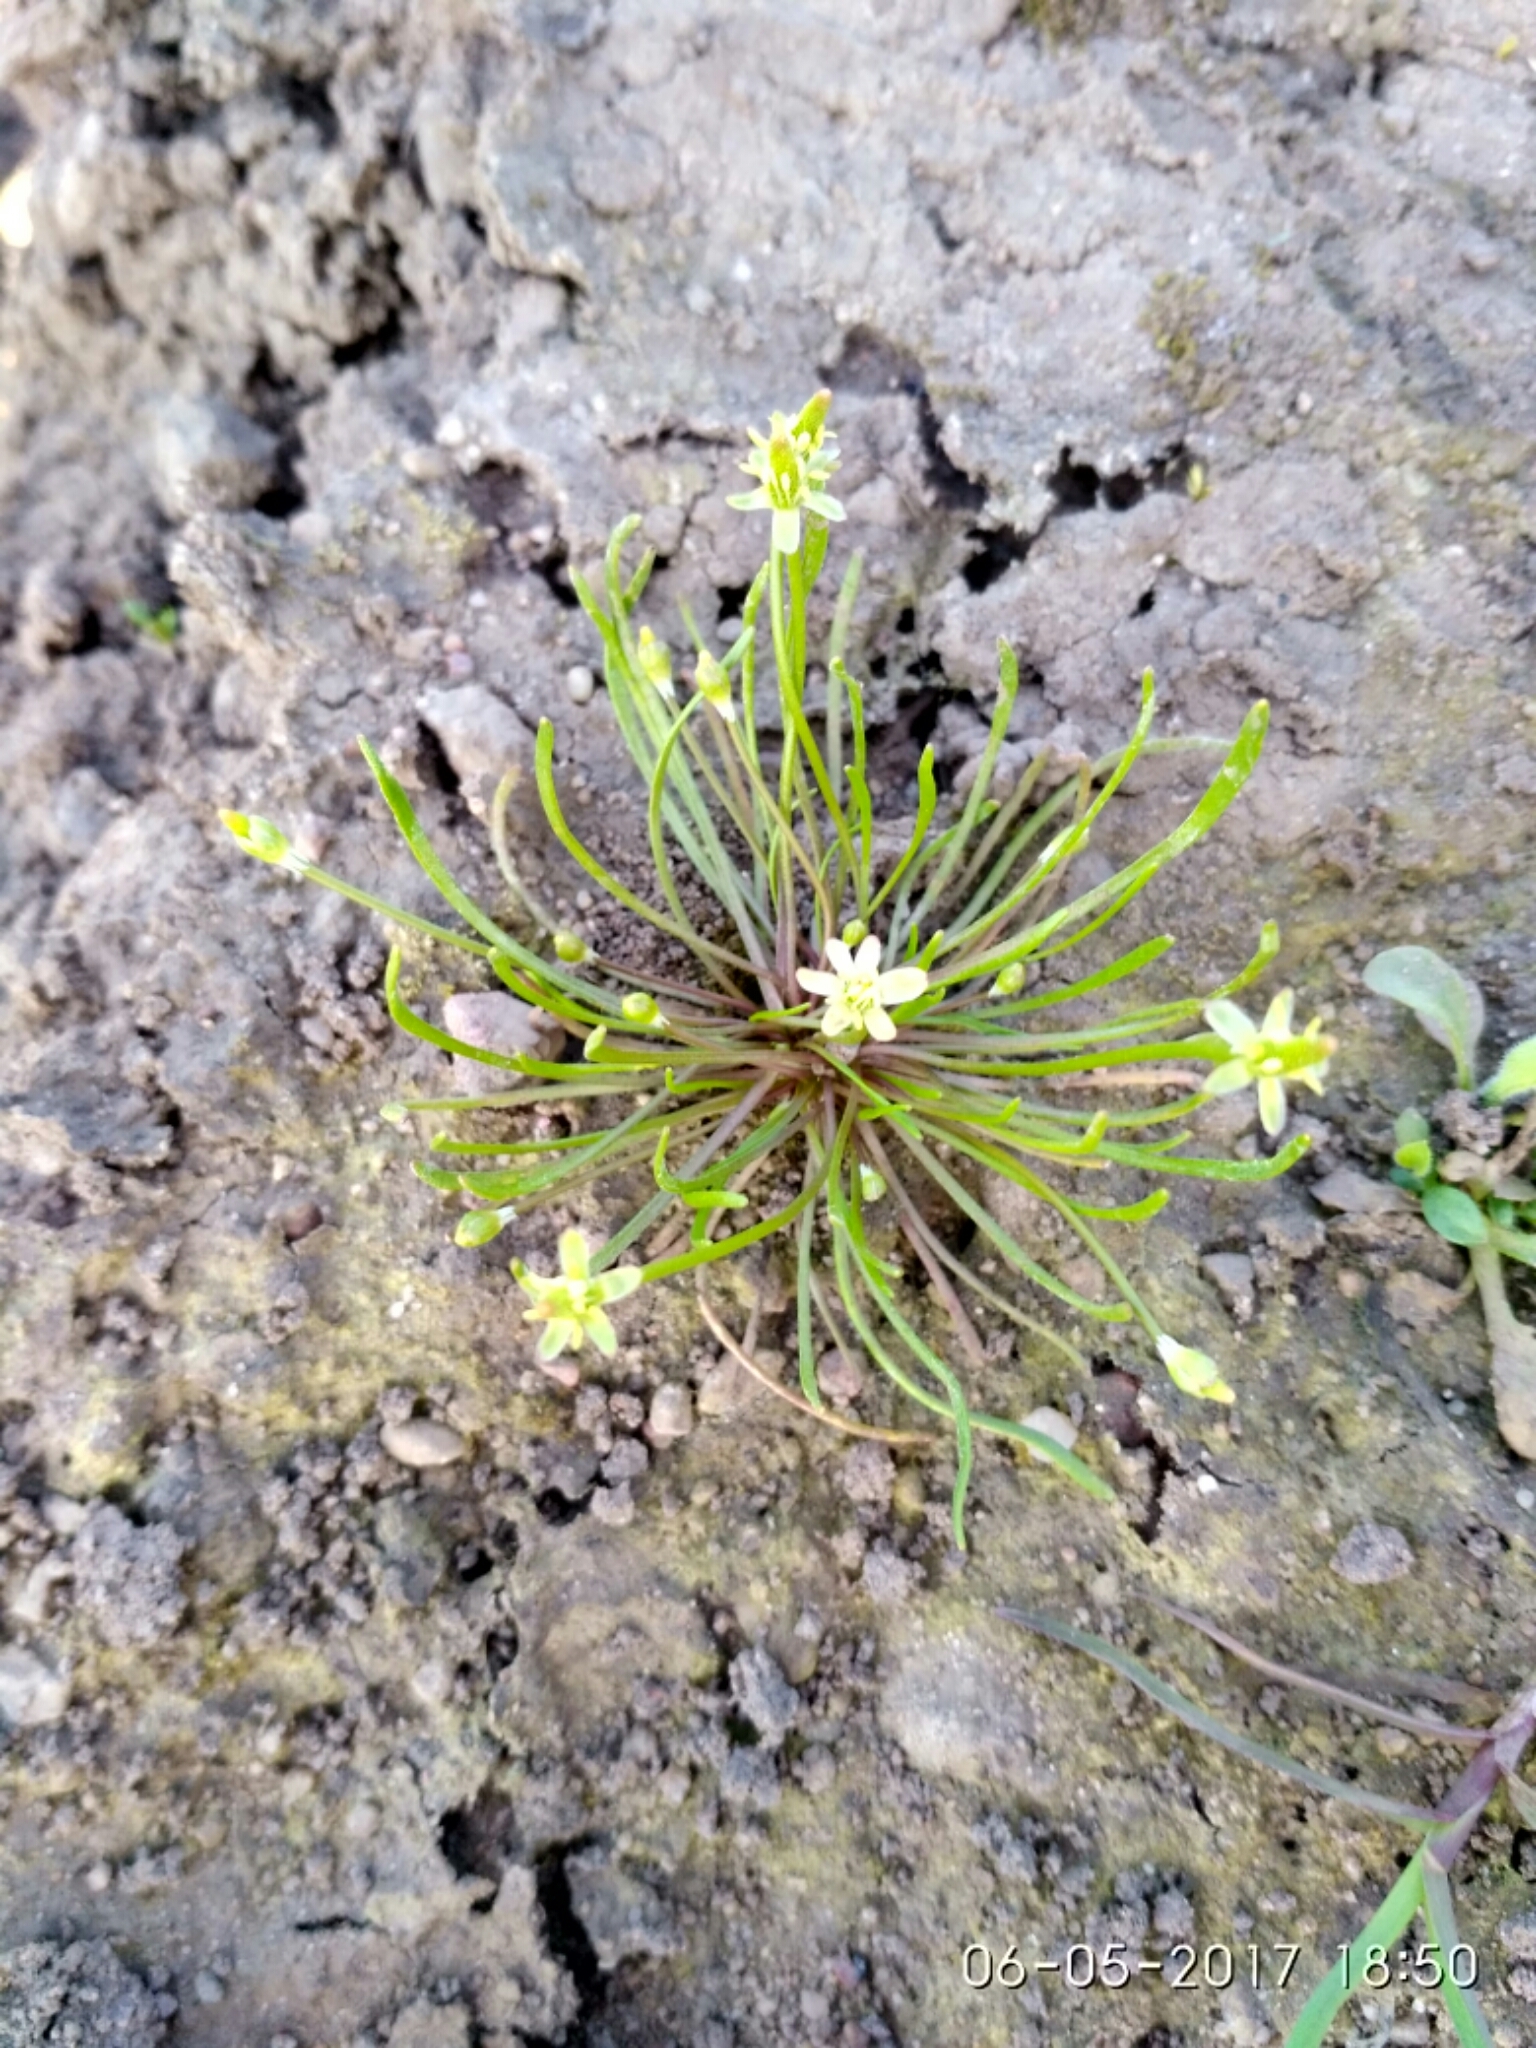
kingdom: Plantae
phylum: Tracheophyta
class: Magnoliopsida
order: Ranunculales
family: Ranunculaceae
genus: Myosurus
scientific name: Myosurus minimus
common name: Mousetail
